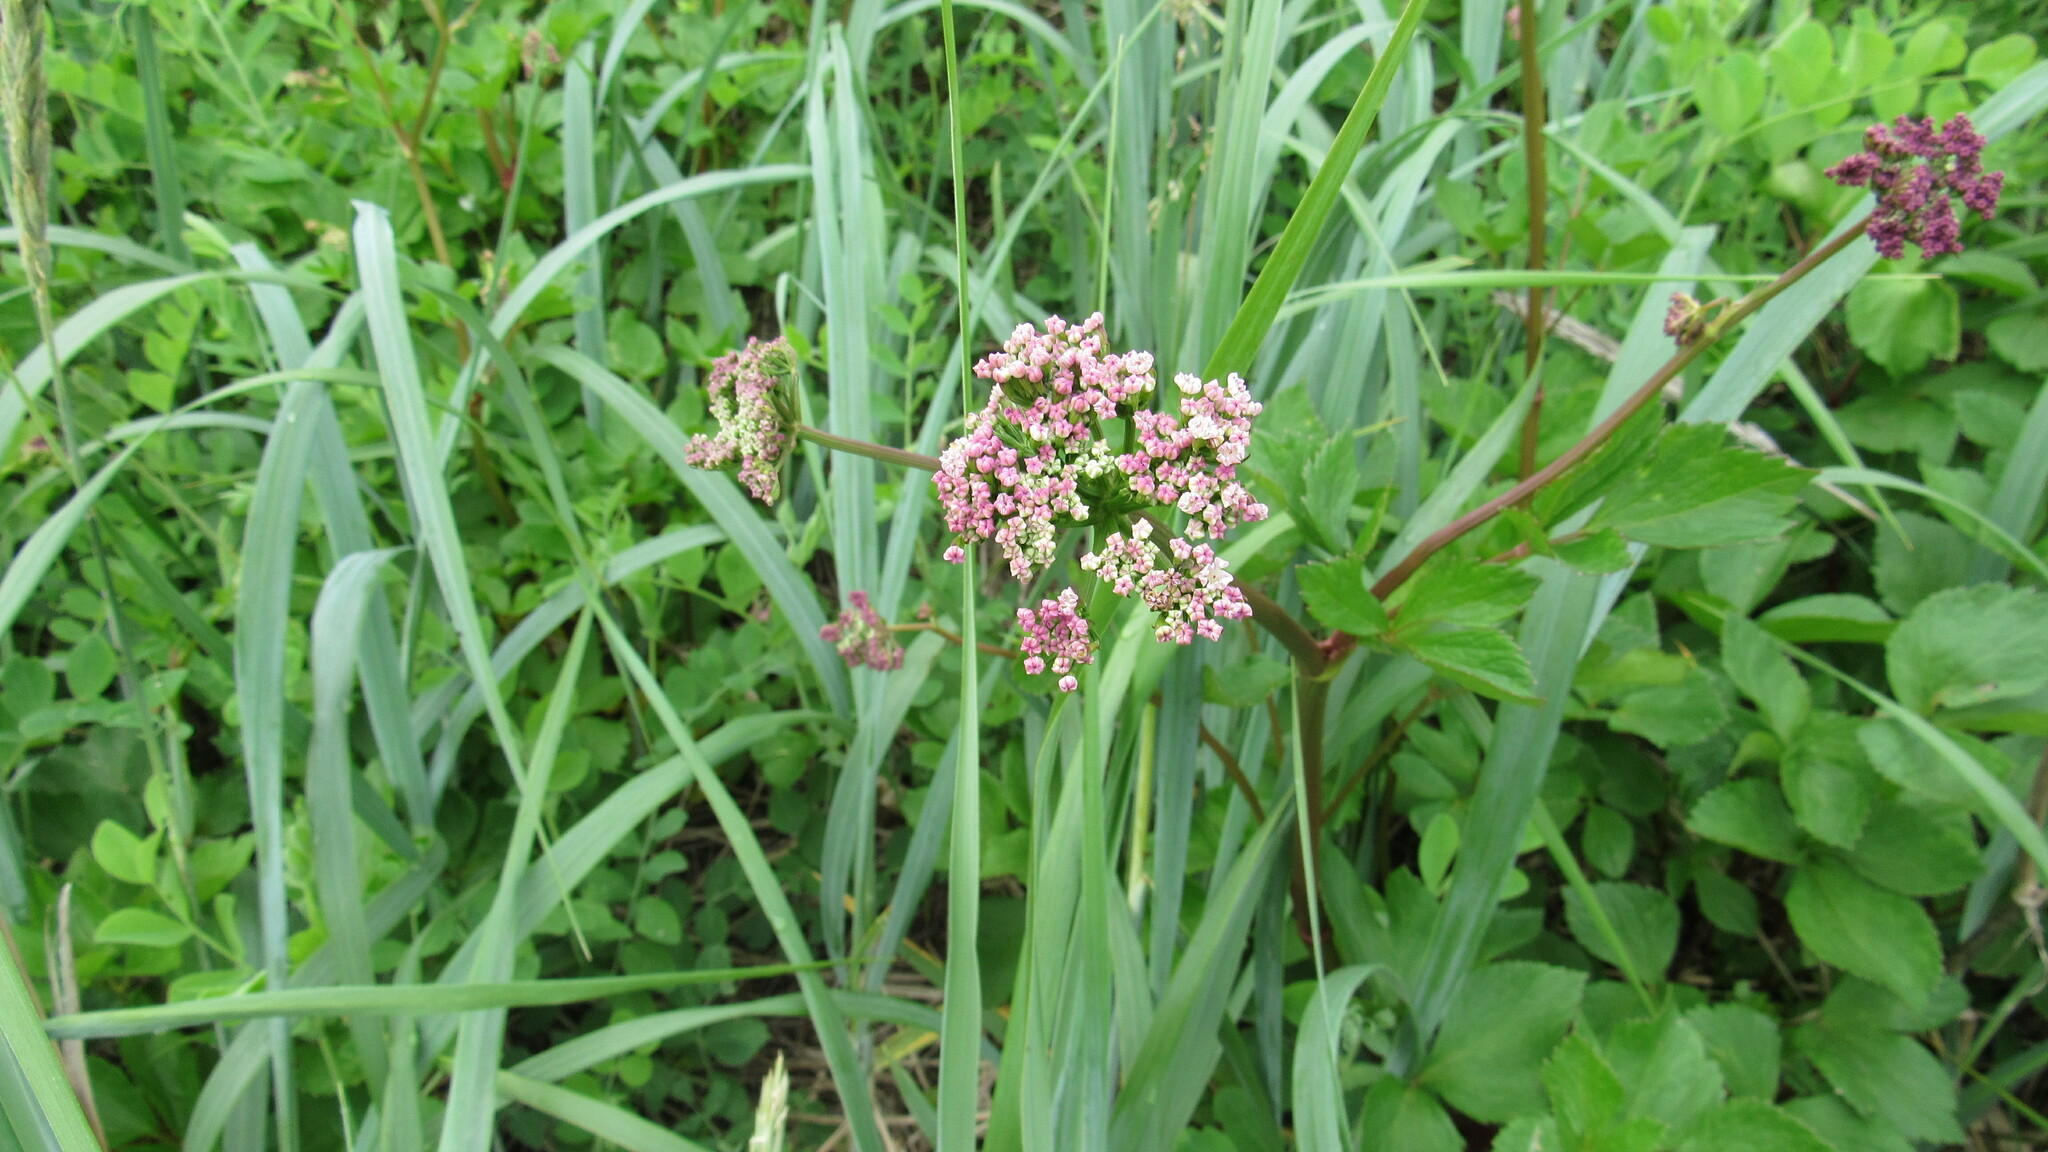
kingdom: Plantae
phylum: Tracheophyta
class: Magnoliopsida
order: Apiales
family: Apiaceae
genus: Ligusticum
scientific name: Ligusticum scothicum
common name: Beach lovage
